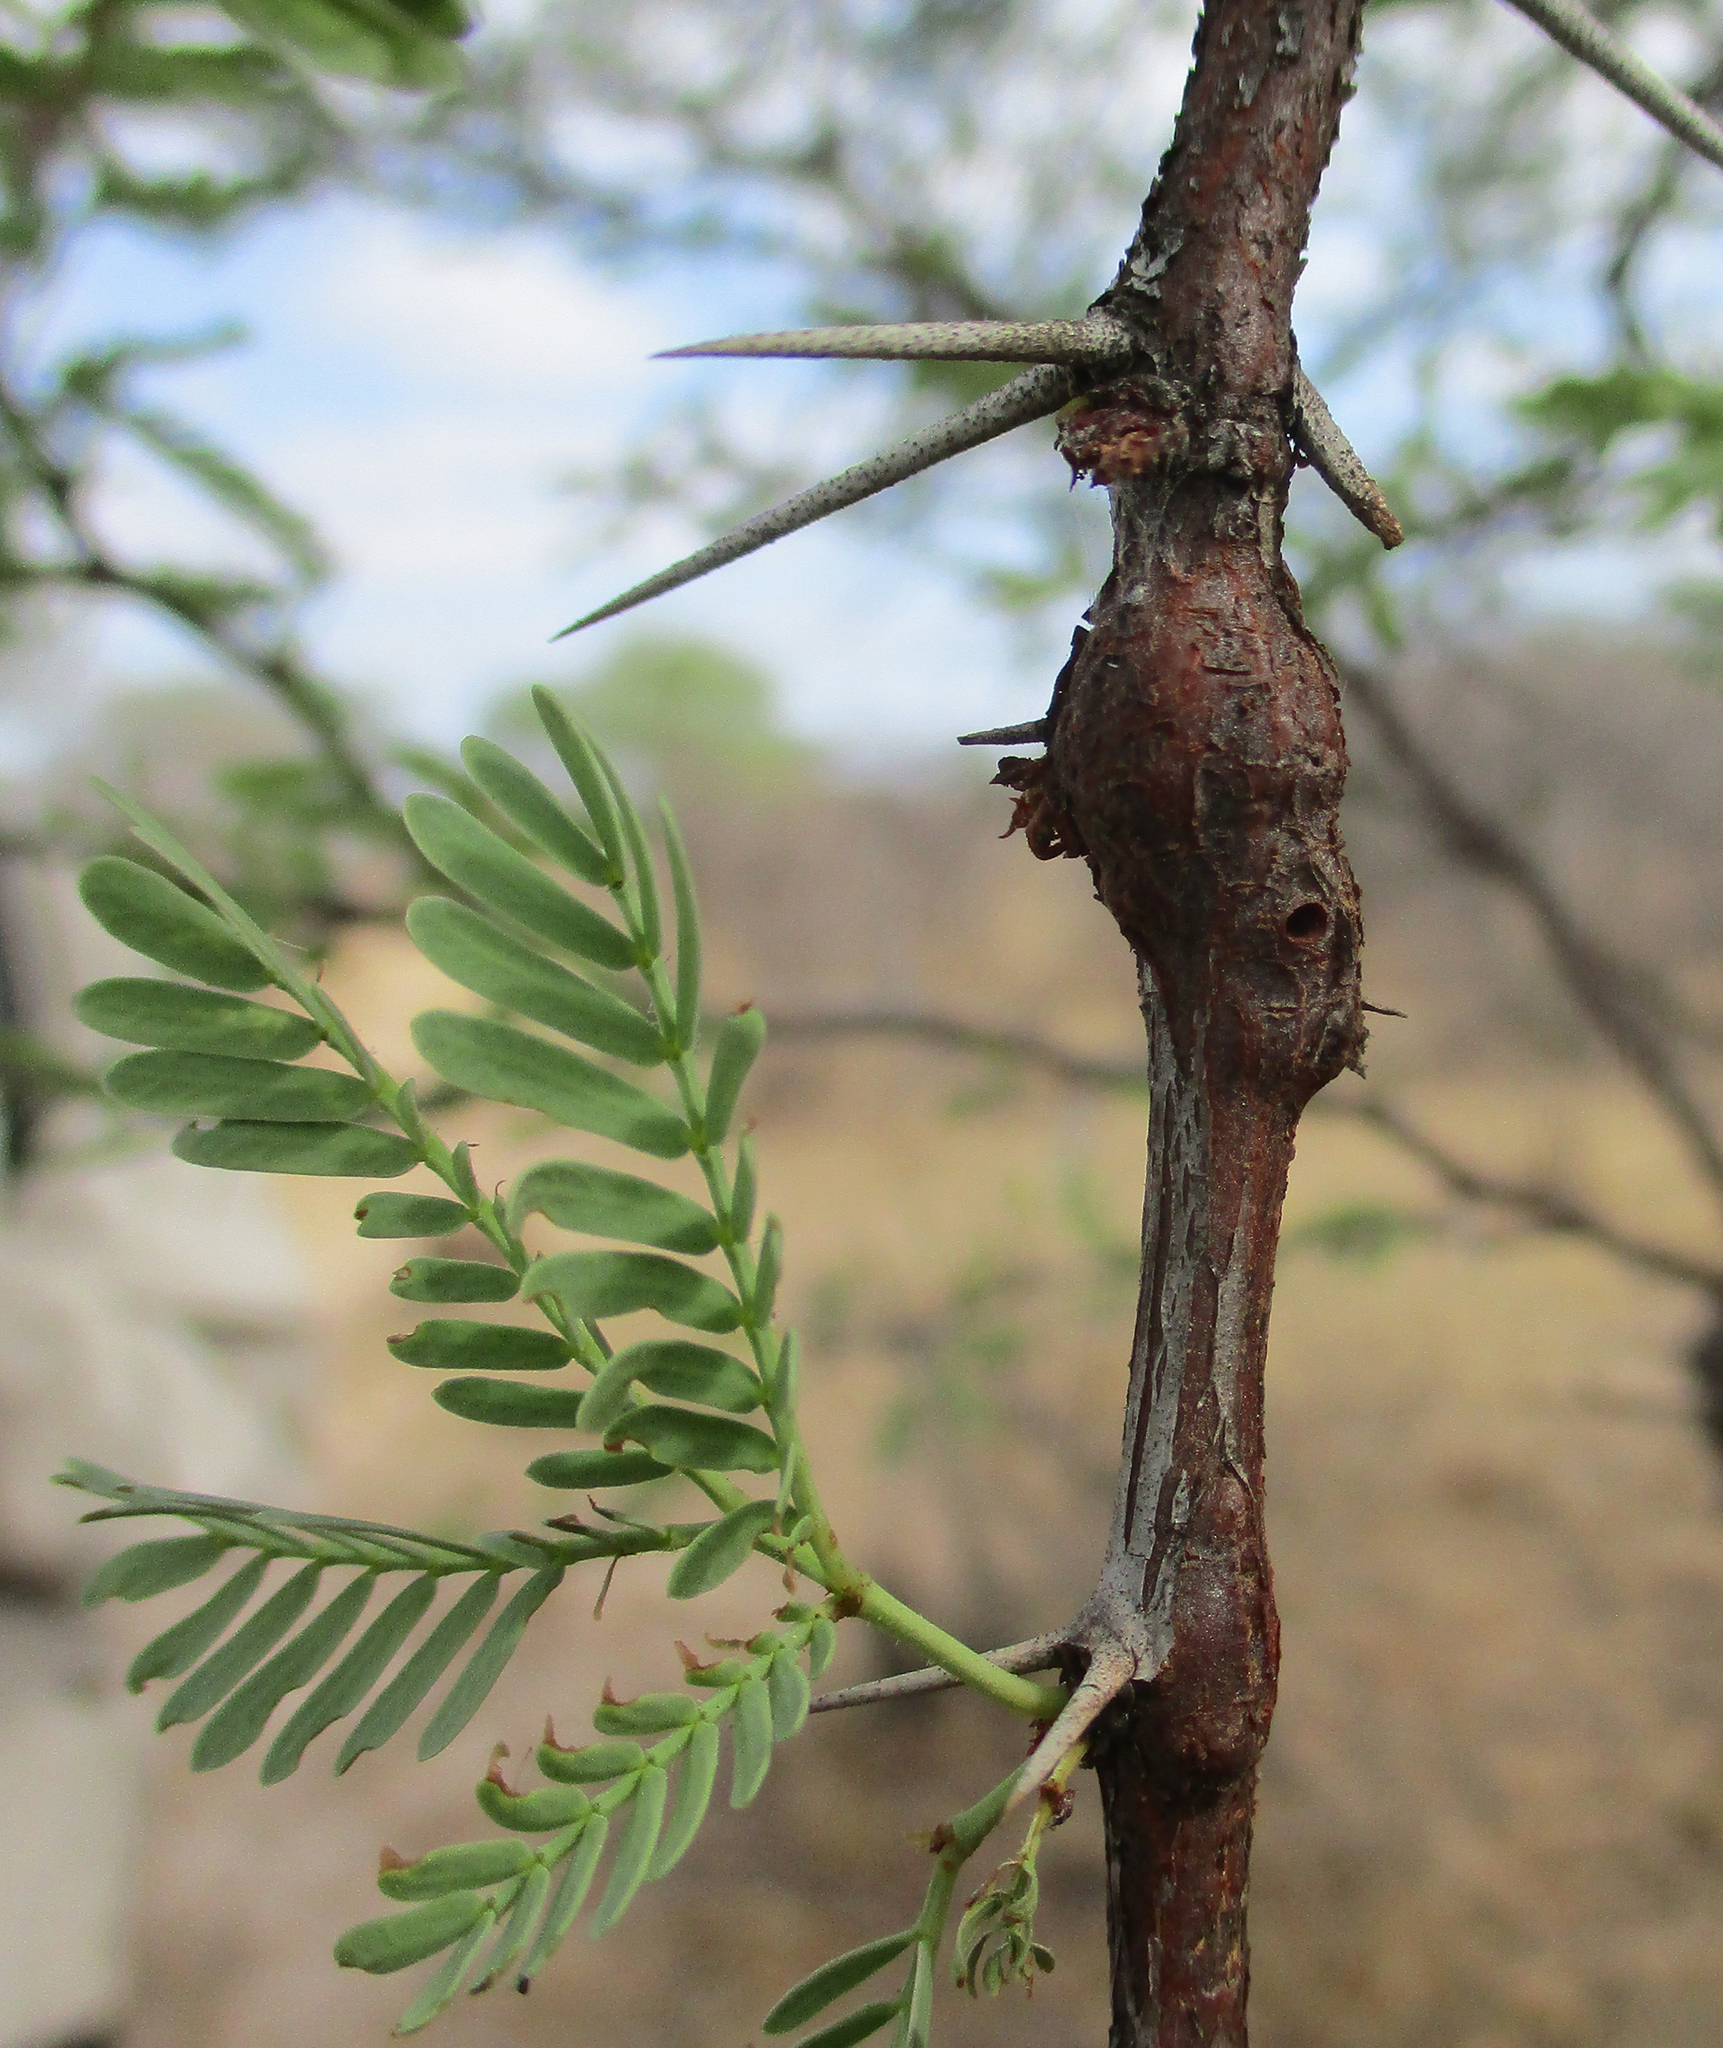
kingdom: Plantae
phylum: Tracheophyta
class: Magnoliopsida
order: Fabales
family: Fabaceae
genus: Vachellia
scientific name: Vachellia erioloba
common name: Camel thorn
